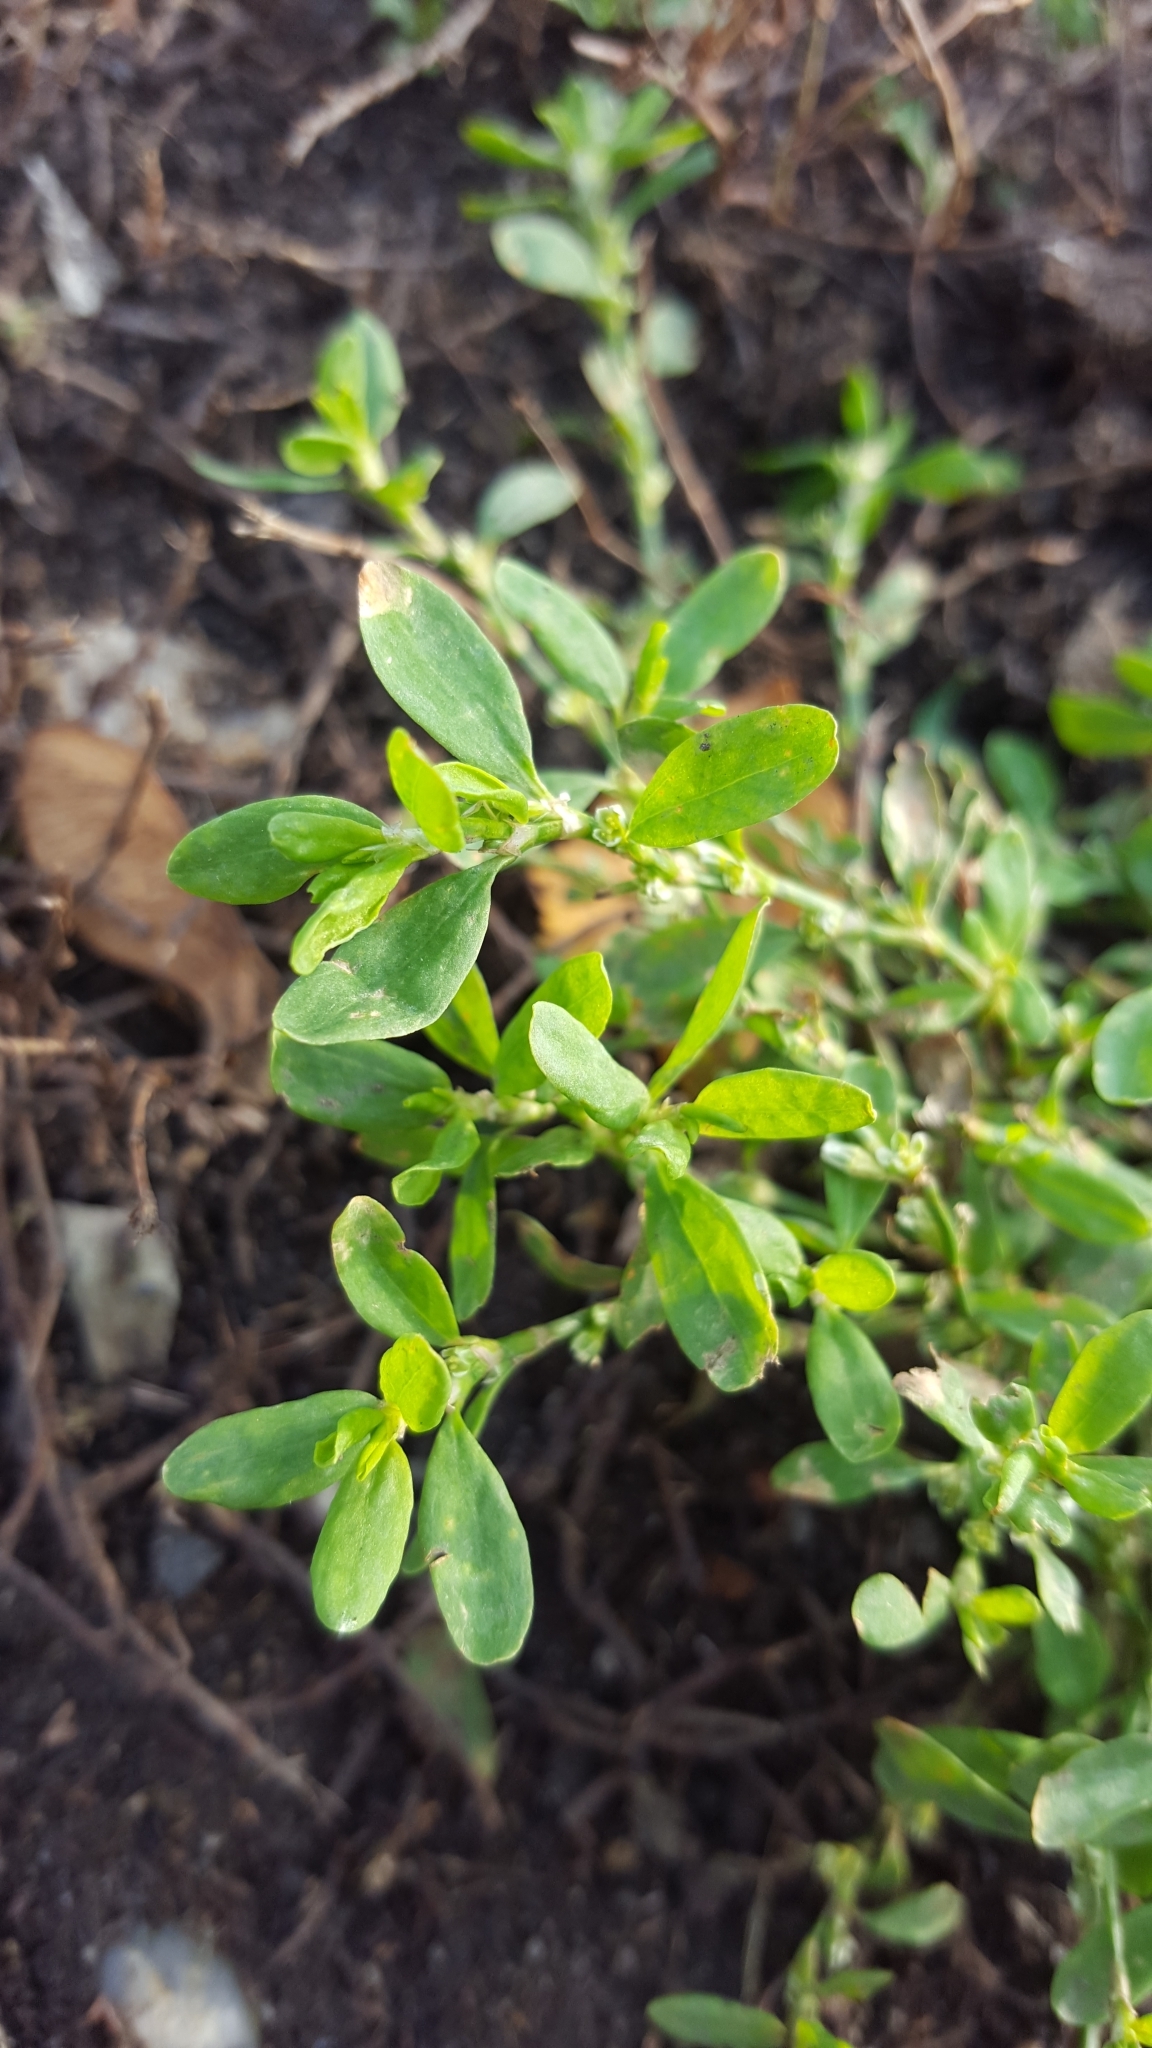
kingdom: Plantae
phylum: Tracheophyta
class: Magnoliopsida
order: Caryophyllales
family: Polygonaceae
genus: Polygonum
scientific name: Polygonum aviculare
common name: Prostrate knotweed
